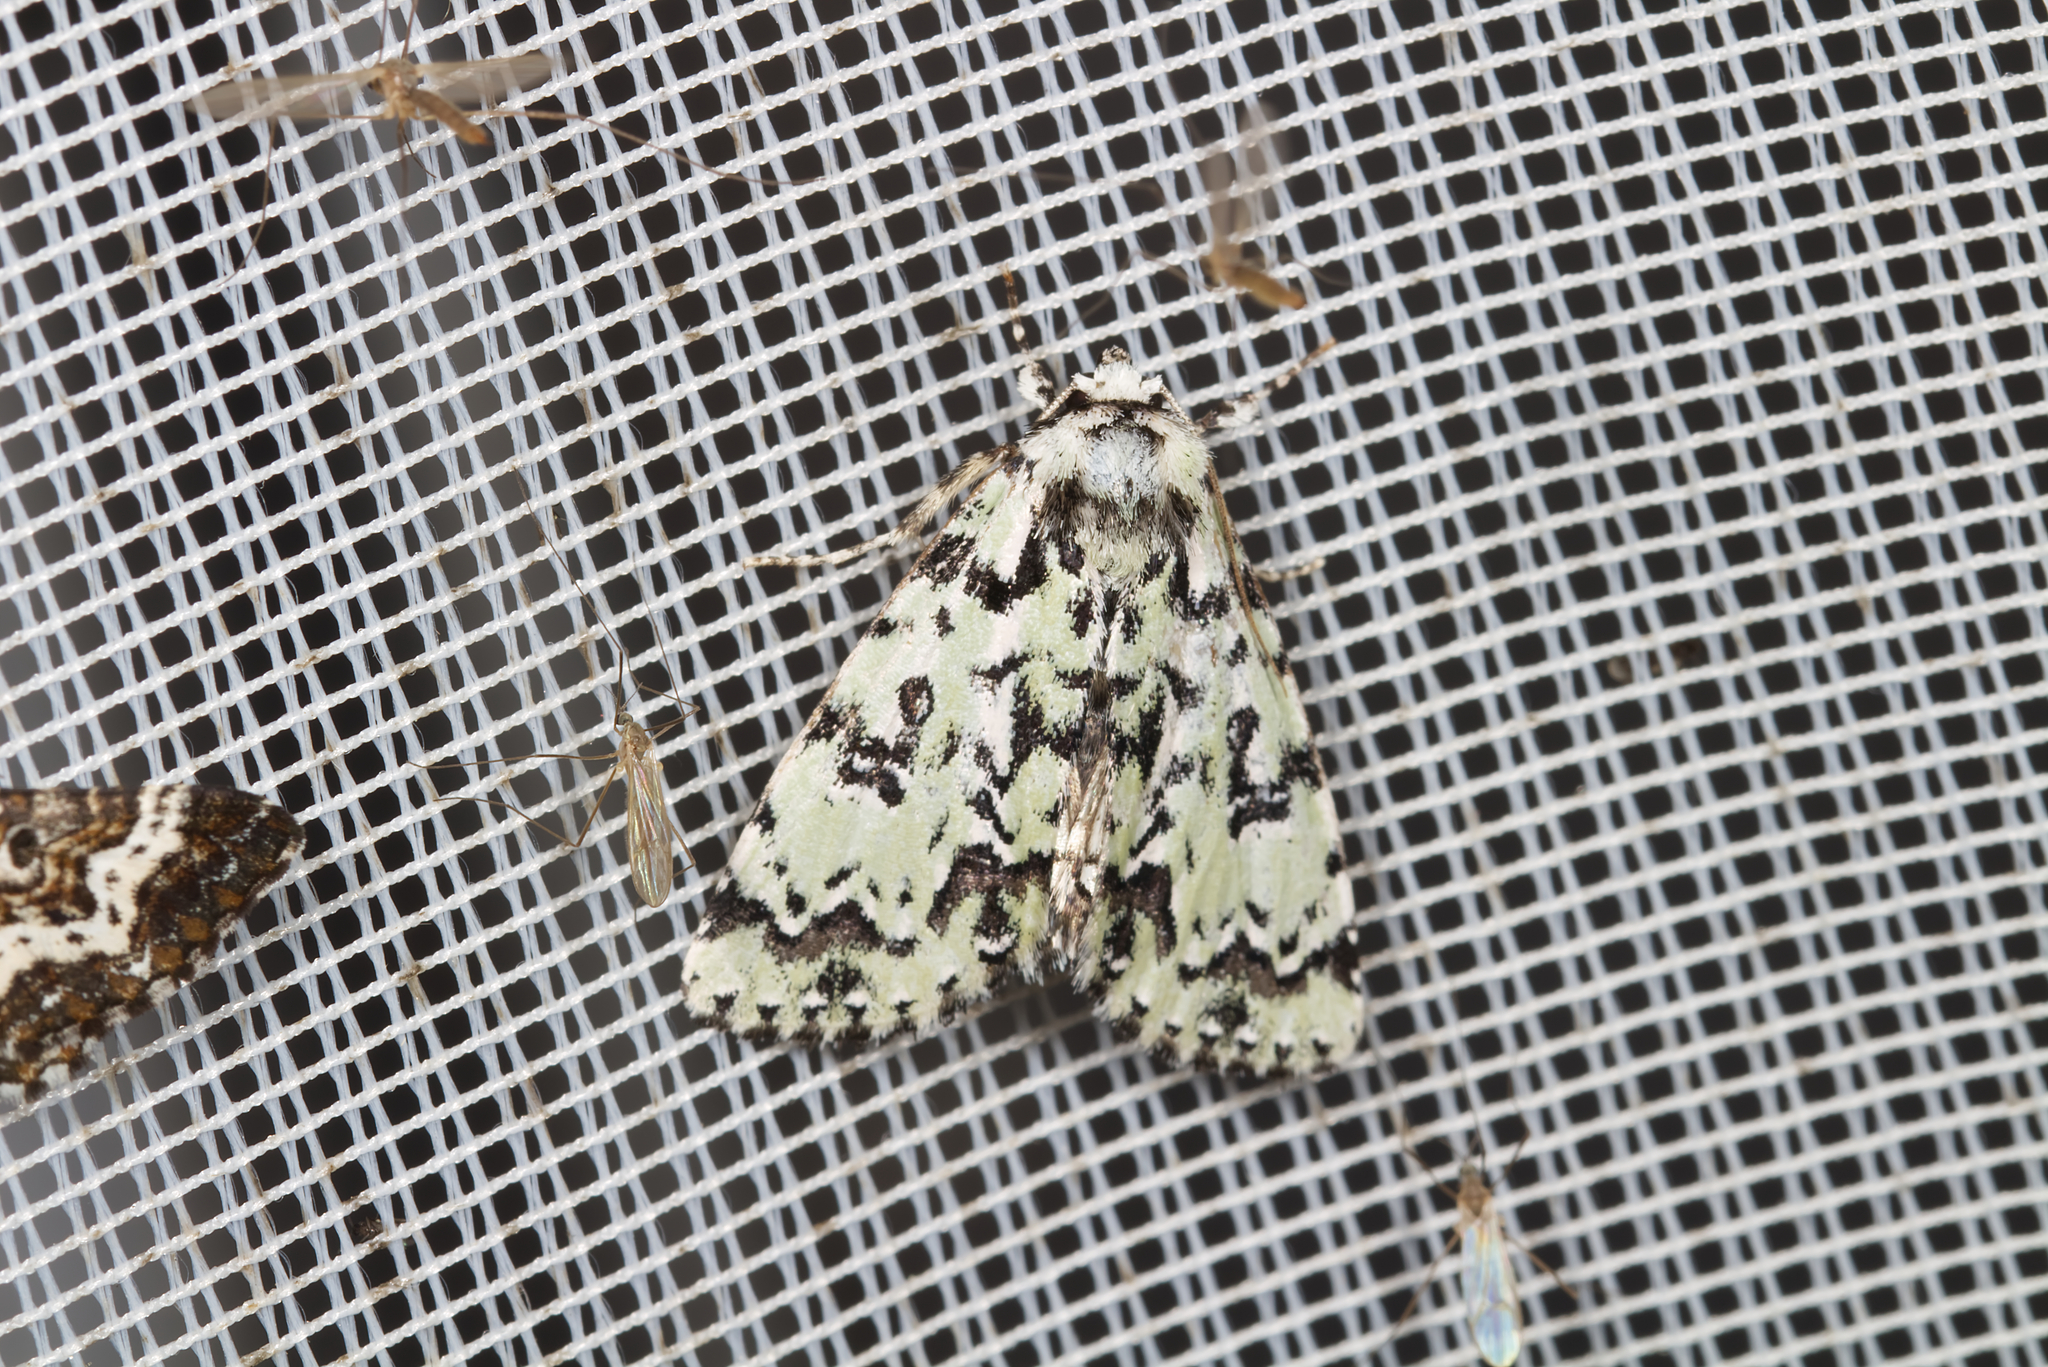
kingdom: Animalia
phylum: Arthropoda
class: Insecta
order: Lepidoptera
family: Noctuidae
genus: Moma
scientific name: Moma alpium
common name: Scarce merveille du jour
